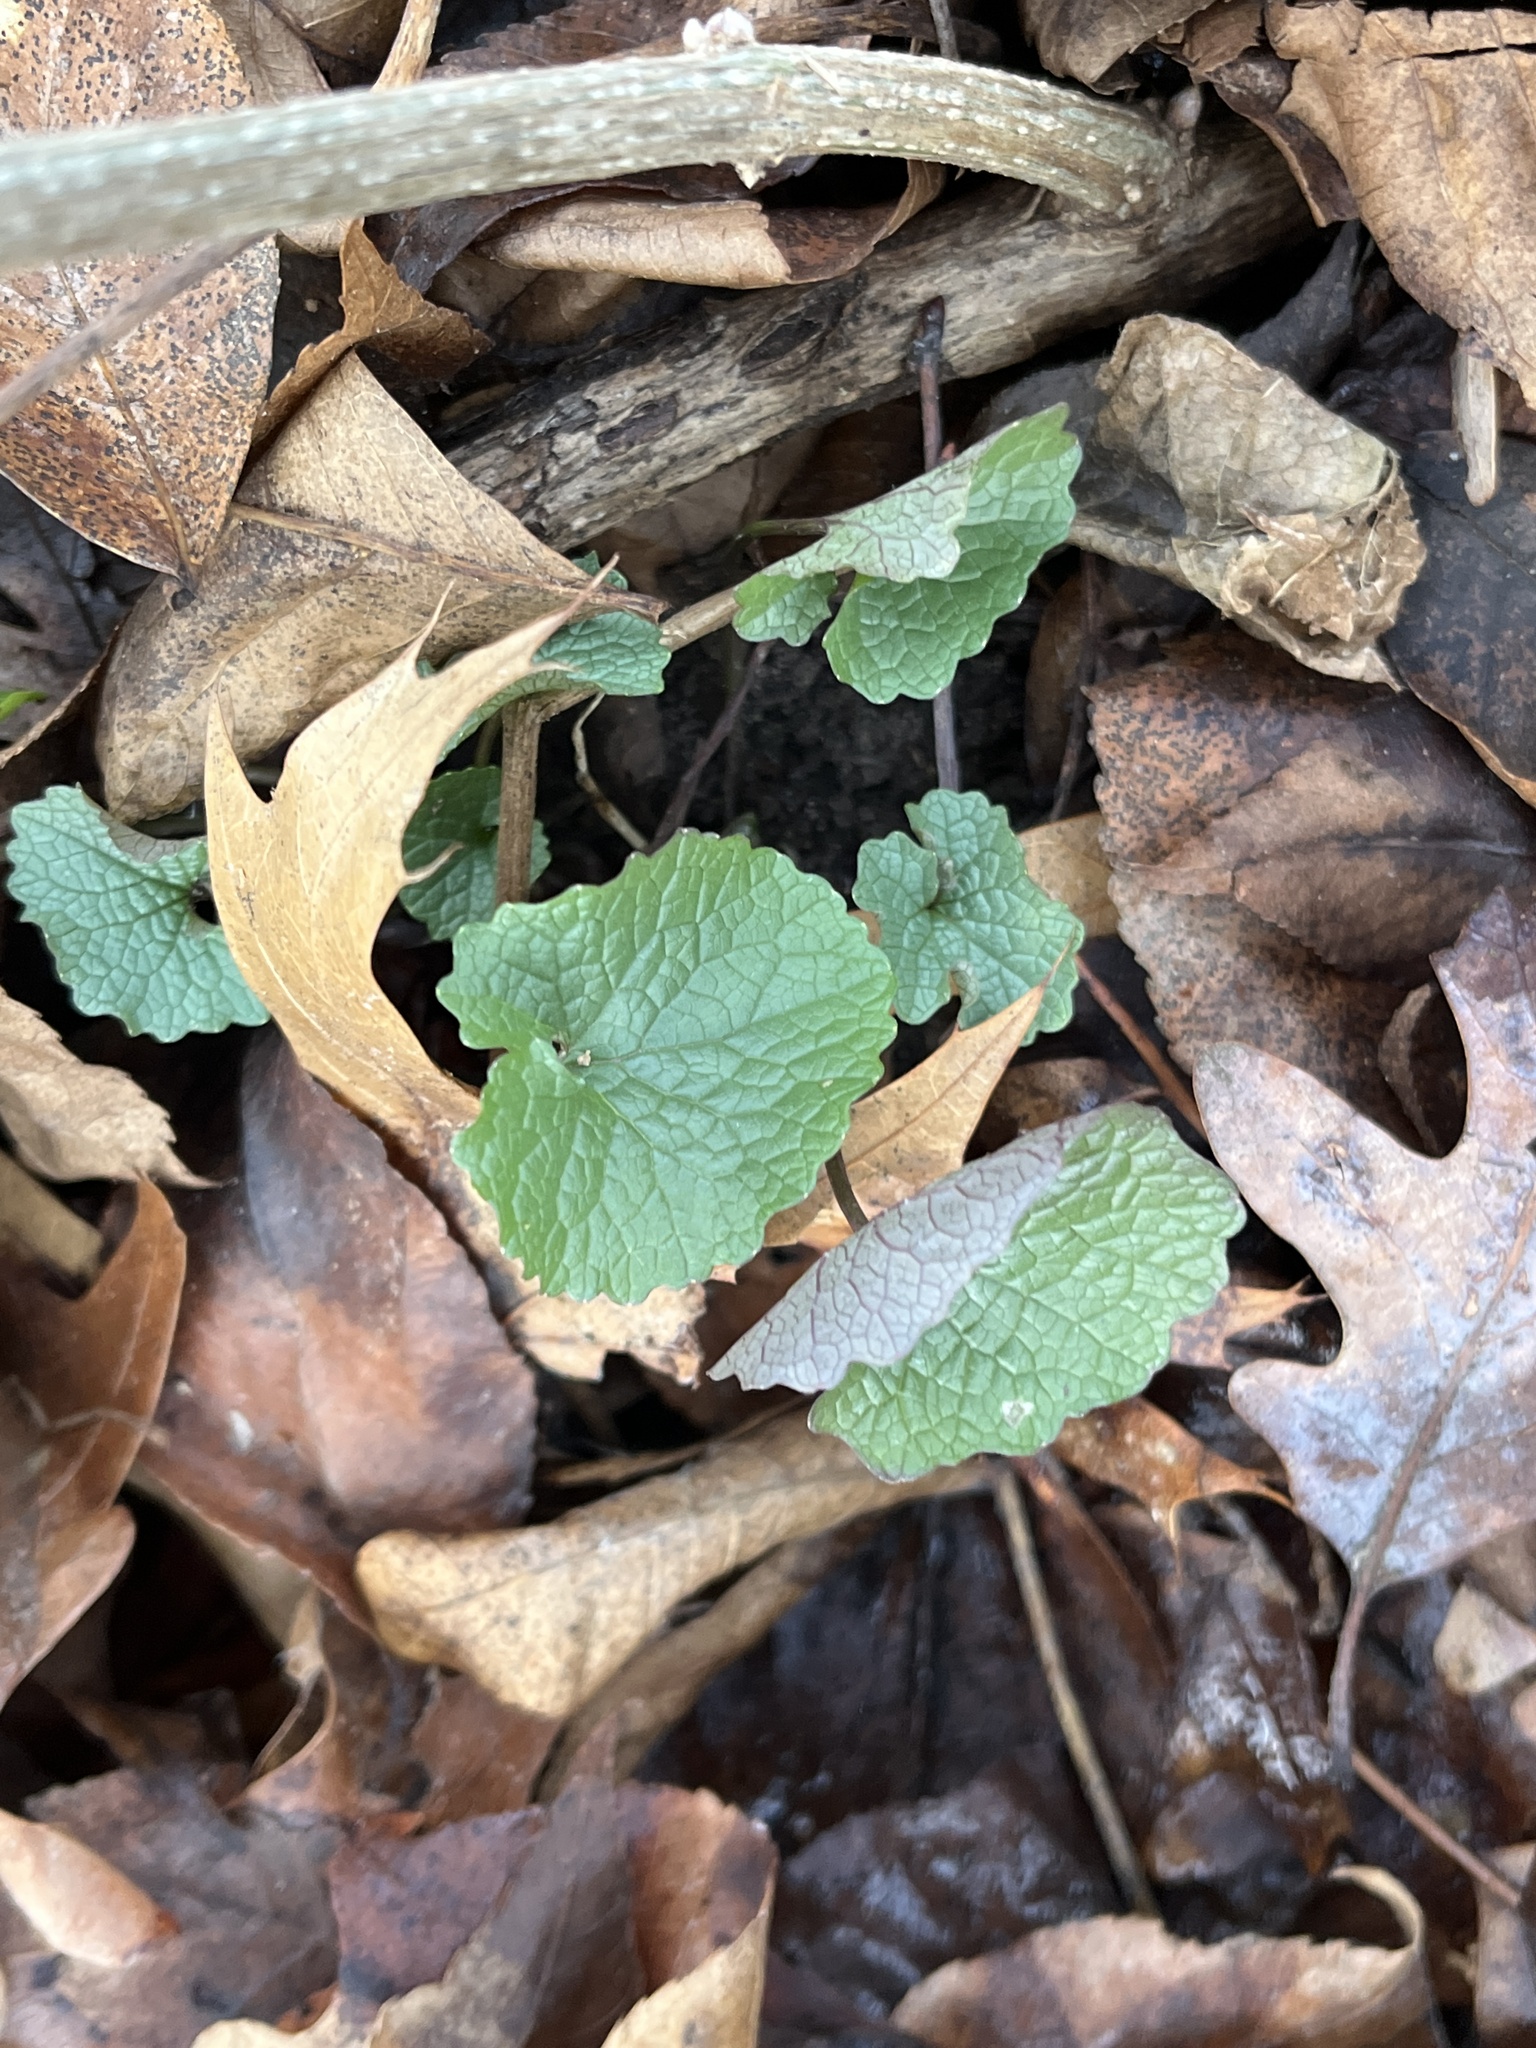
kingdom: Plantae
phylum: Tracheophyta
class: Magnoliopsida
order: Brassicales
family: Brassicaceae
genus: Alliaria
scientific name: Alliaria petiolata
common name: Garlic mustard
